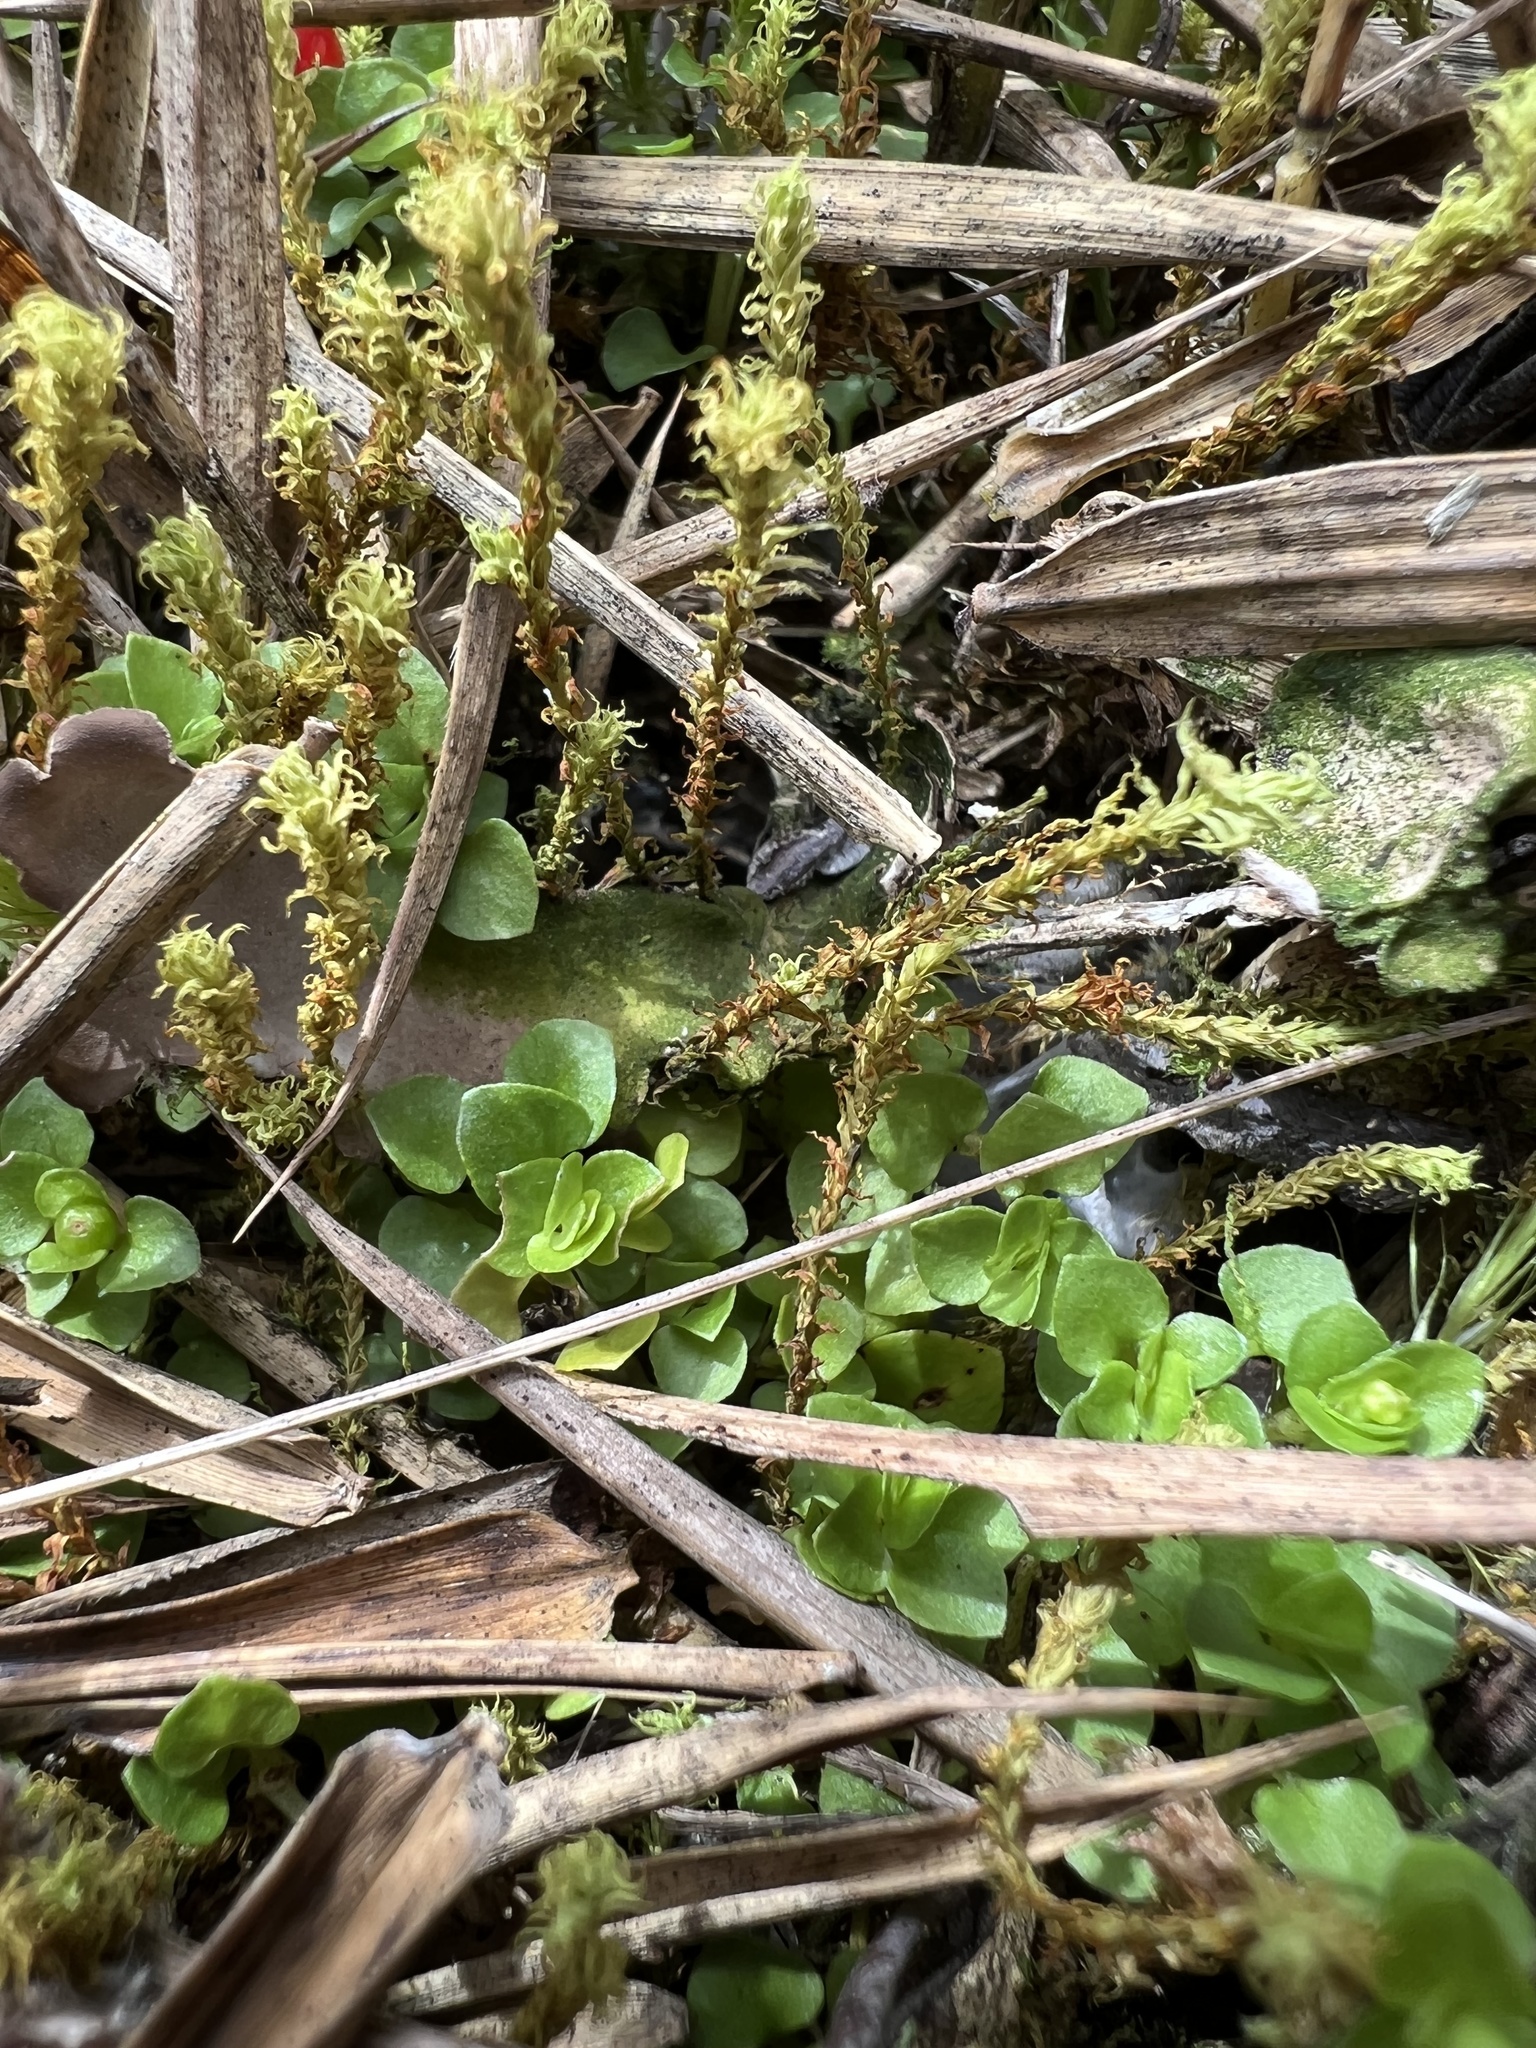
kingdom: Plantae
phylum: Tracheophyta
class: Magnoliopsida
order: Gentianales
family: Rubiaceae
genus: Nertera
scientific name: Nertera granadensis
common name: Beadplant
